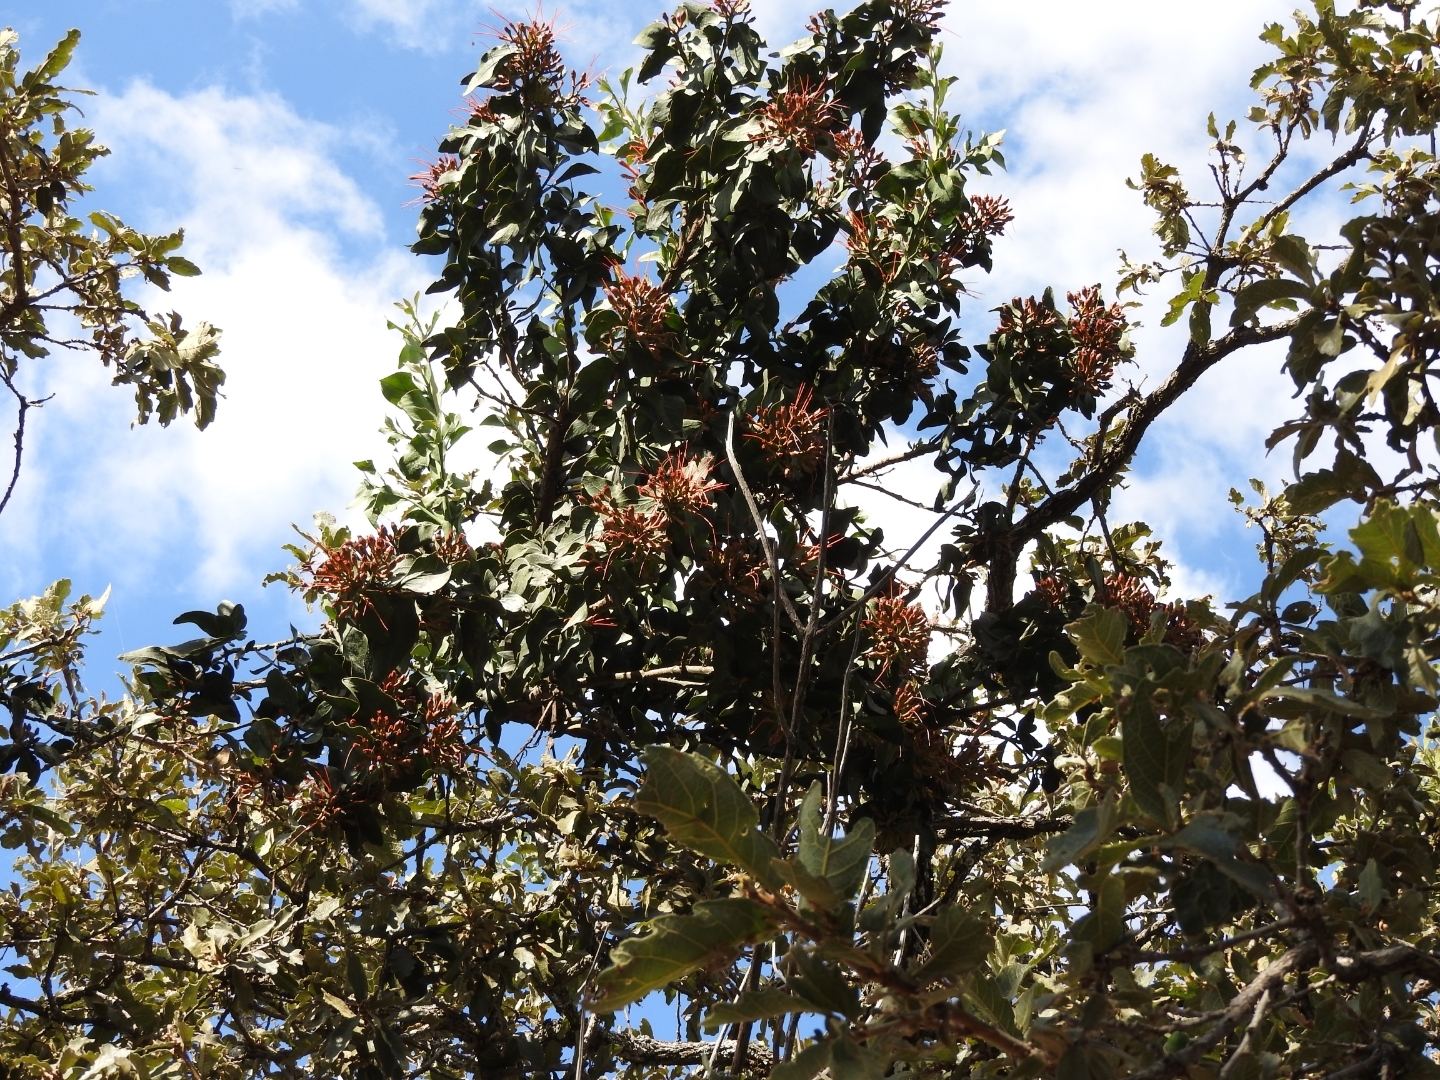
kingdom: Plantae
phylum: Tracheophyta
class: Magnoliopsida
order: Santalales
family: Loranthaceae
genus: Psittacanthus
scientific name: Psittacanthus calyculatus
